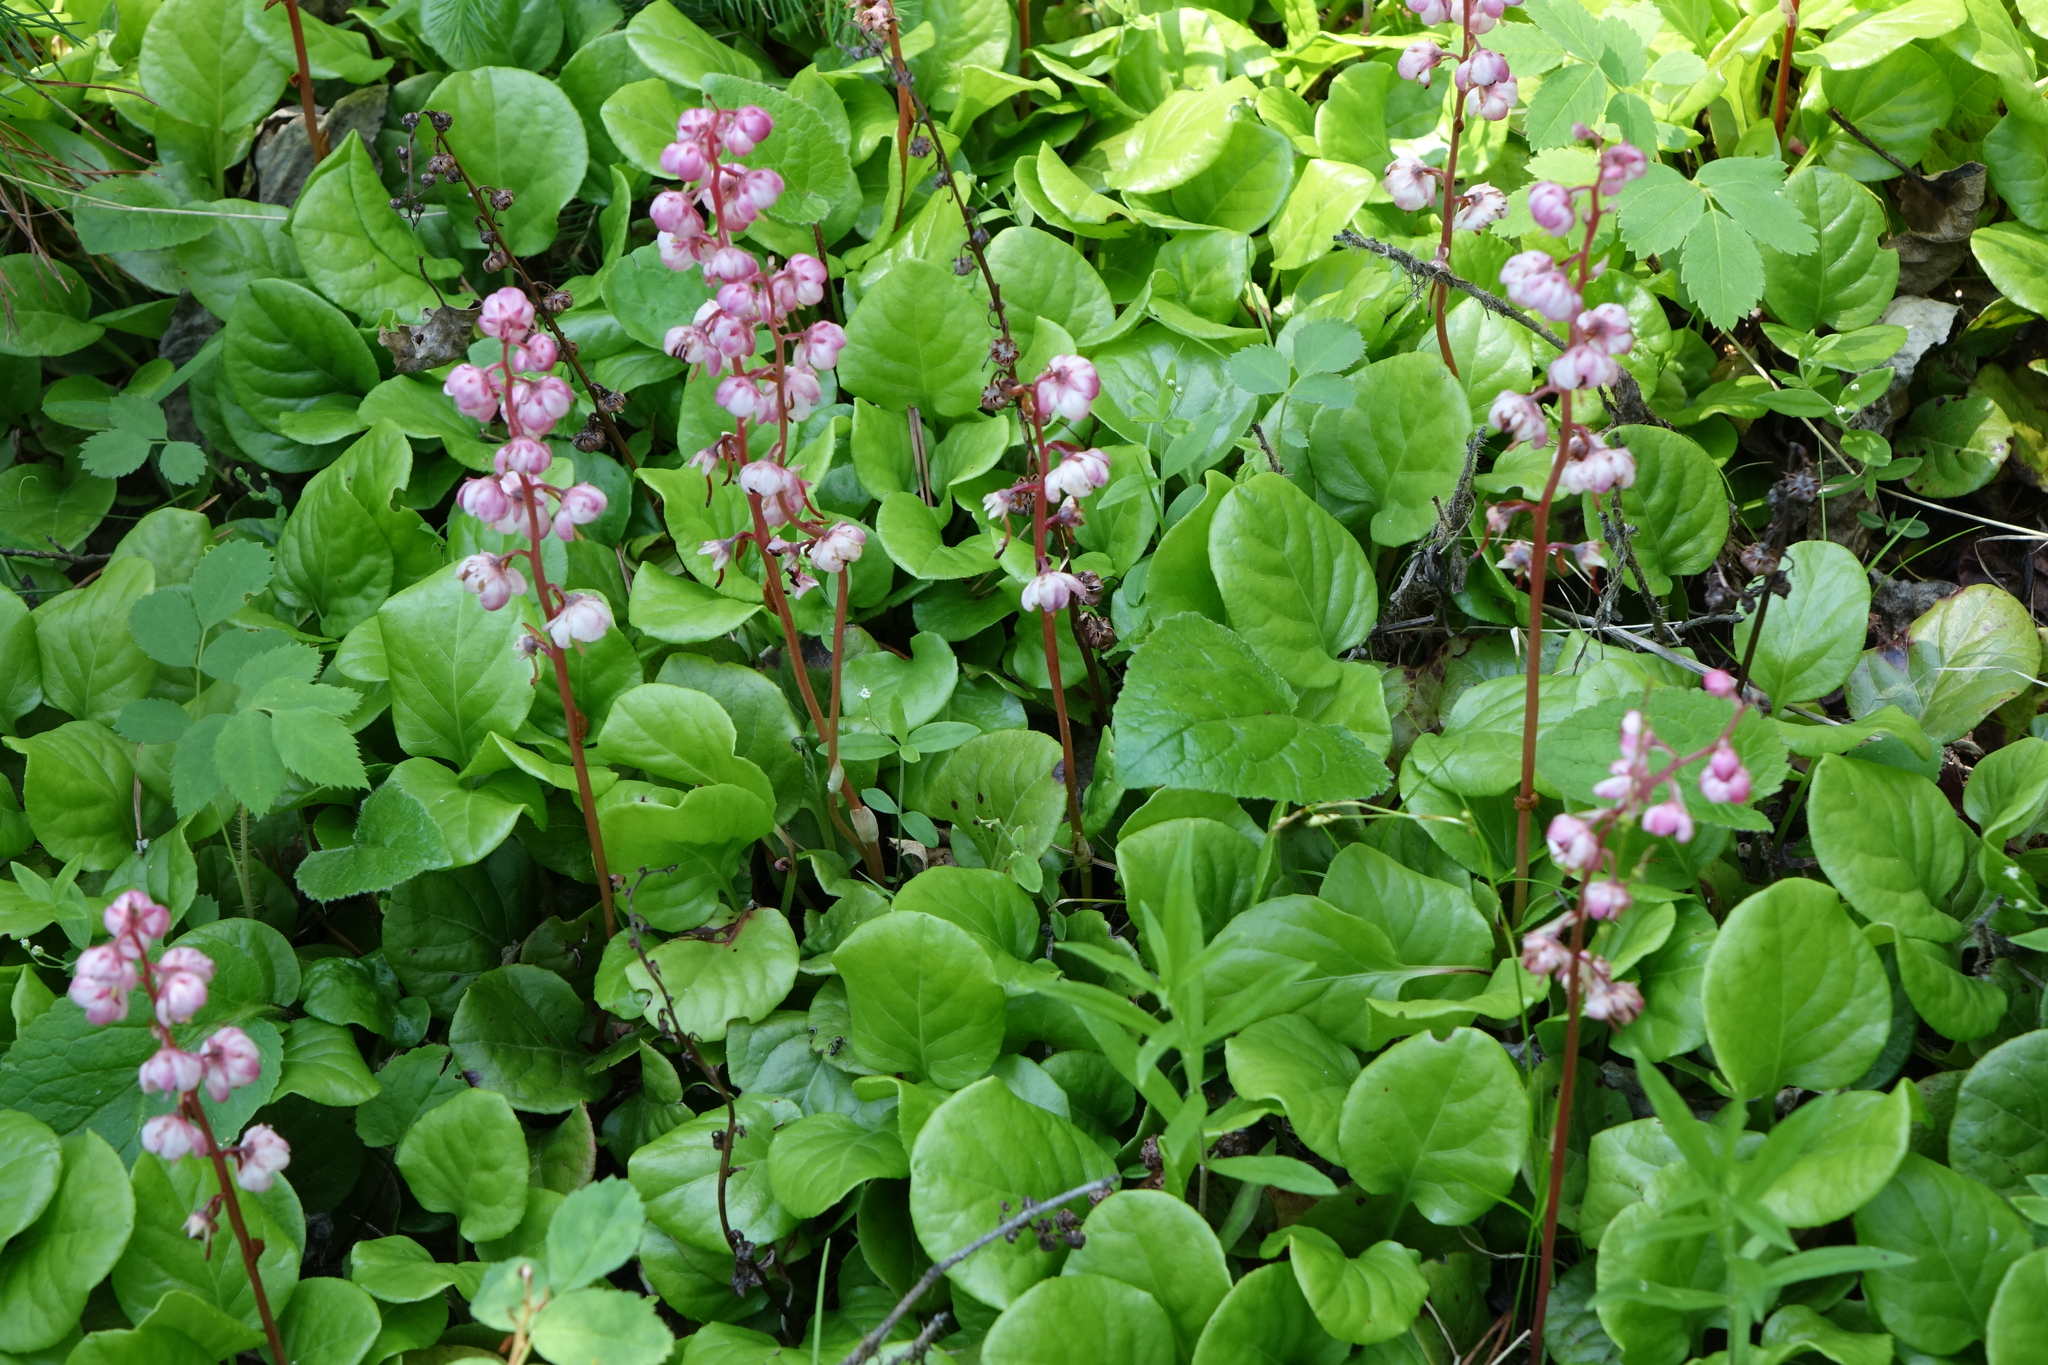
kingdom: Plantae
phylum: Tracheophyta
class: Magnoliopsida
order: Ericales
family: Ericaceae
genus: Pyrola
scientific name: Pyrola asarifolia
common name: Bog wintergreen
